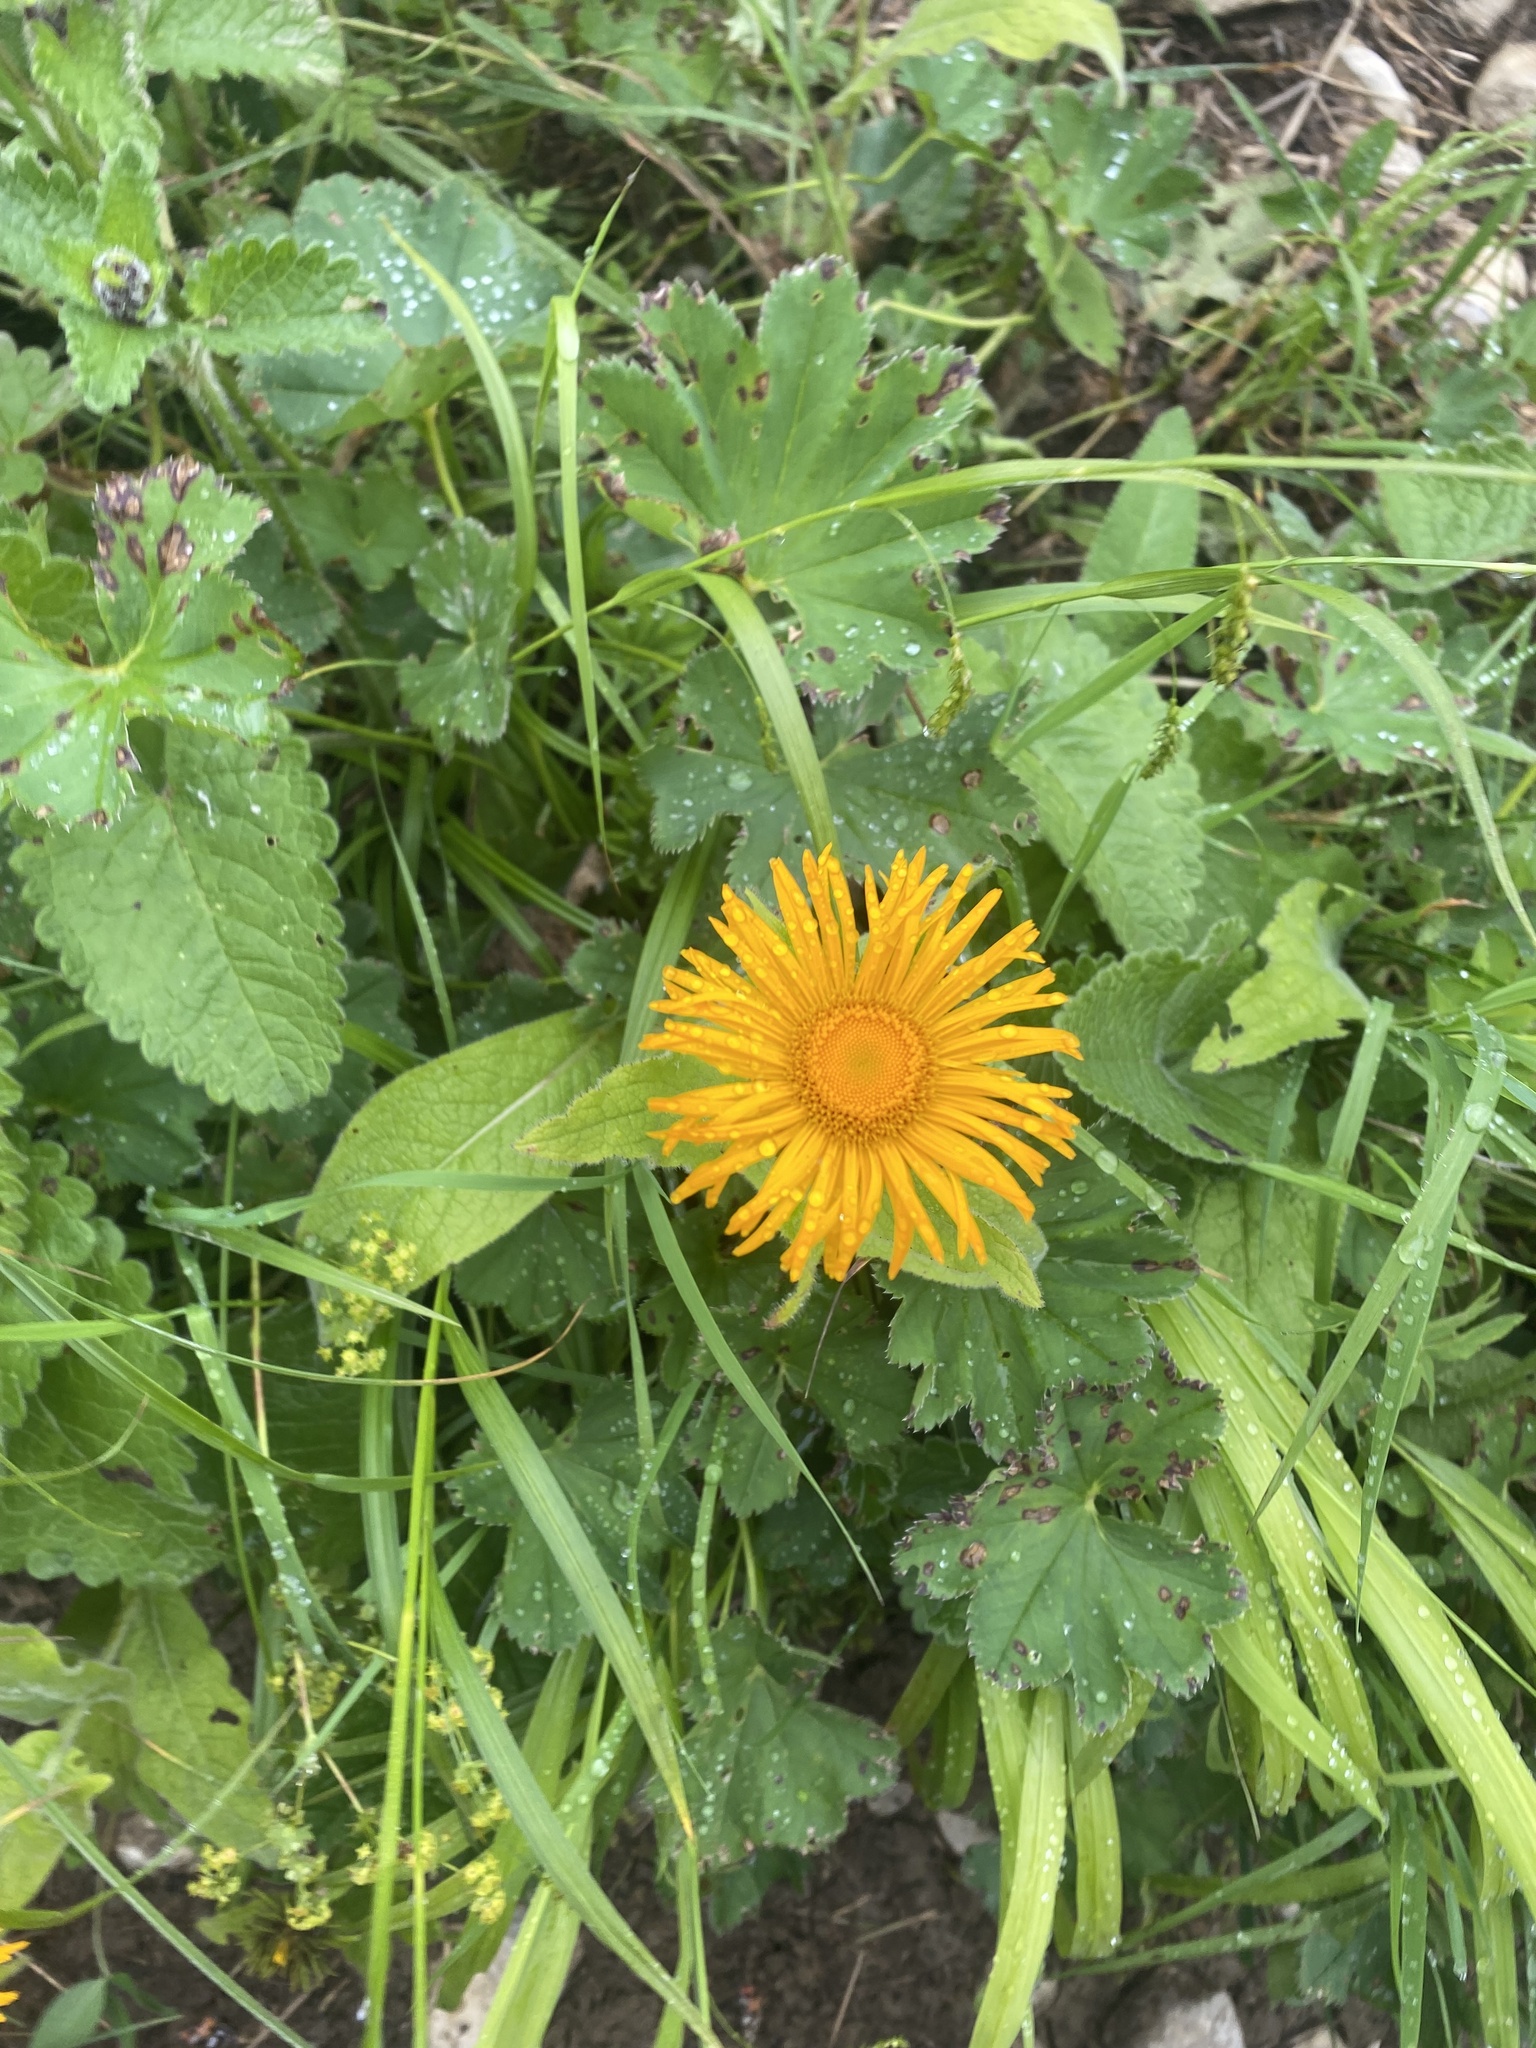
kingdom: Plantae
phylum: Tracheophyta
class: Magnoliopsida
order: Asterales
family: Asteraceae
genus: Pentanema
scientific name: Pentanema orientale
